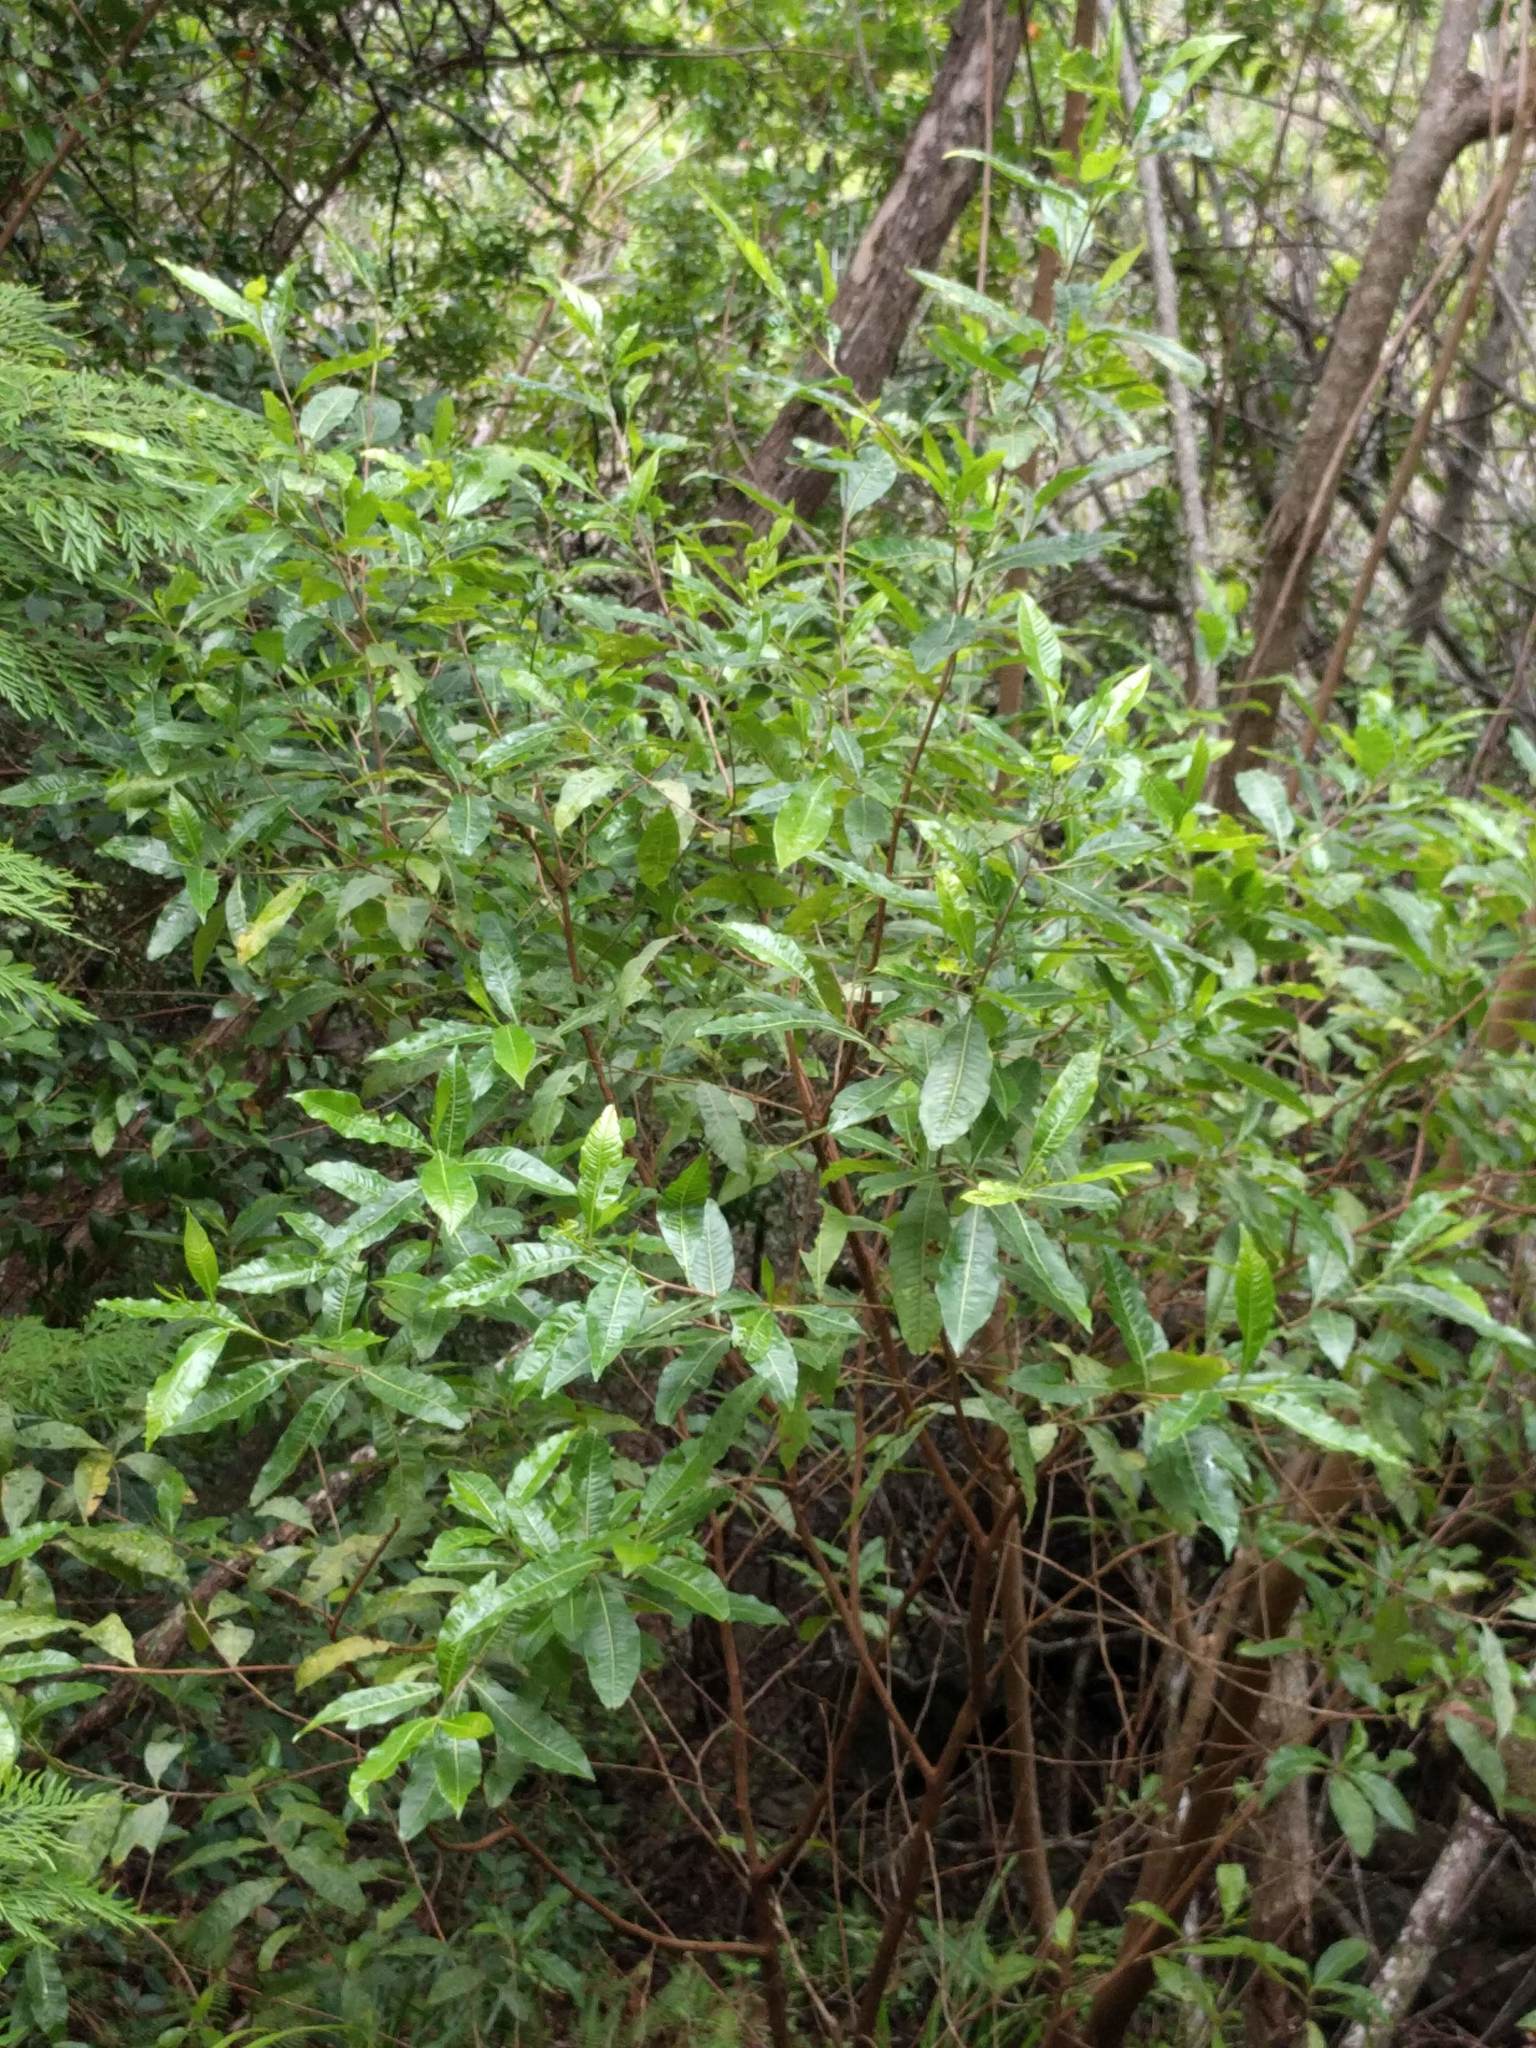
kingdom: Plantae
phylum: Tracheophyta
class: Magnoliopsida
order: Sapindales
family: Sapindaceae
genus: Dodonaea
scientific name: Dodonaea viscosa
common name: Hopbush
